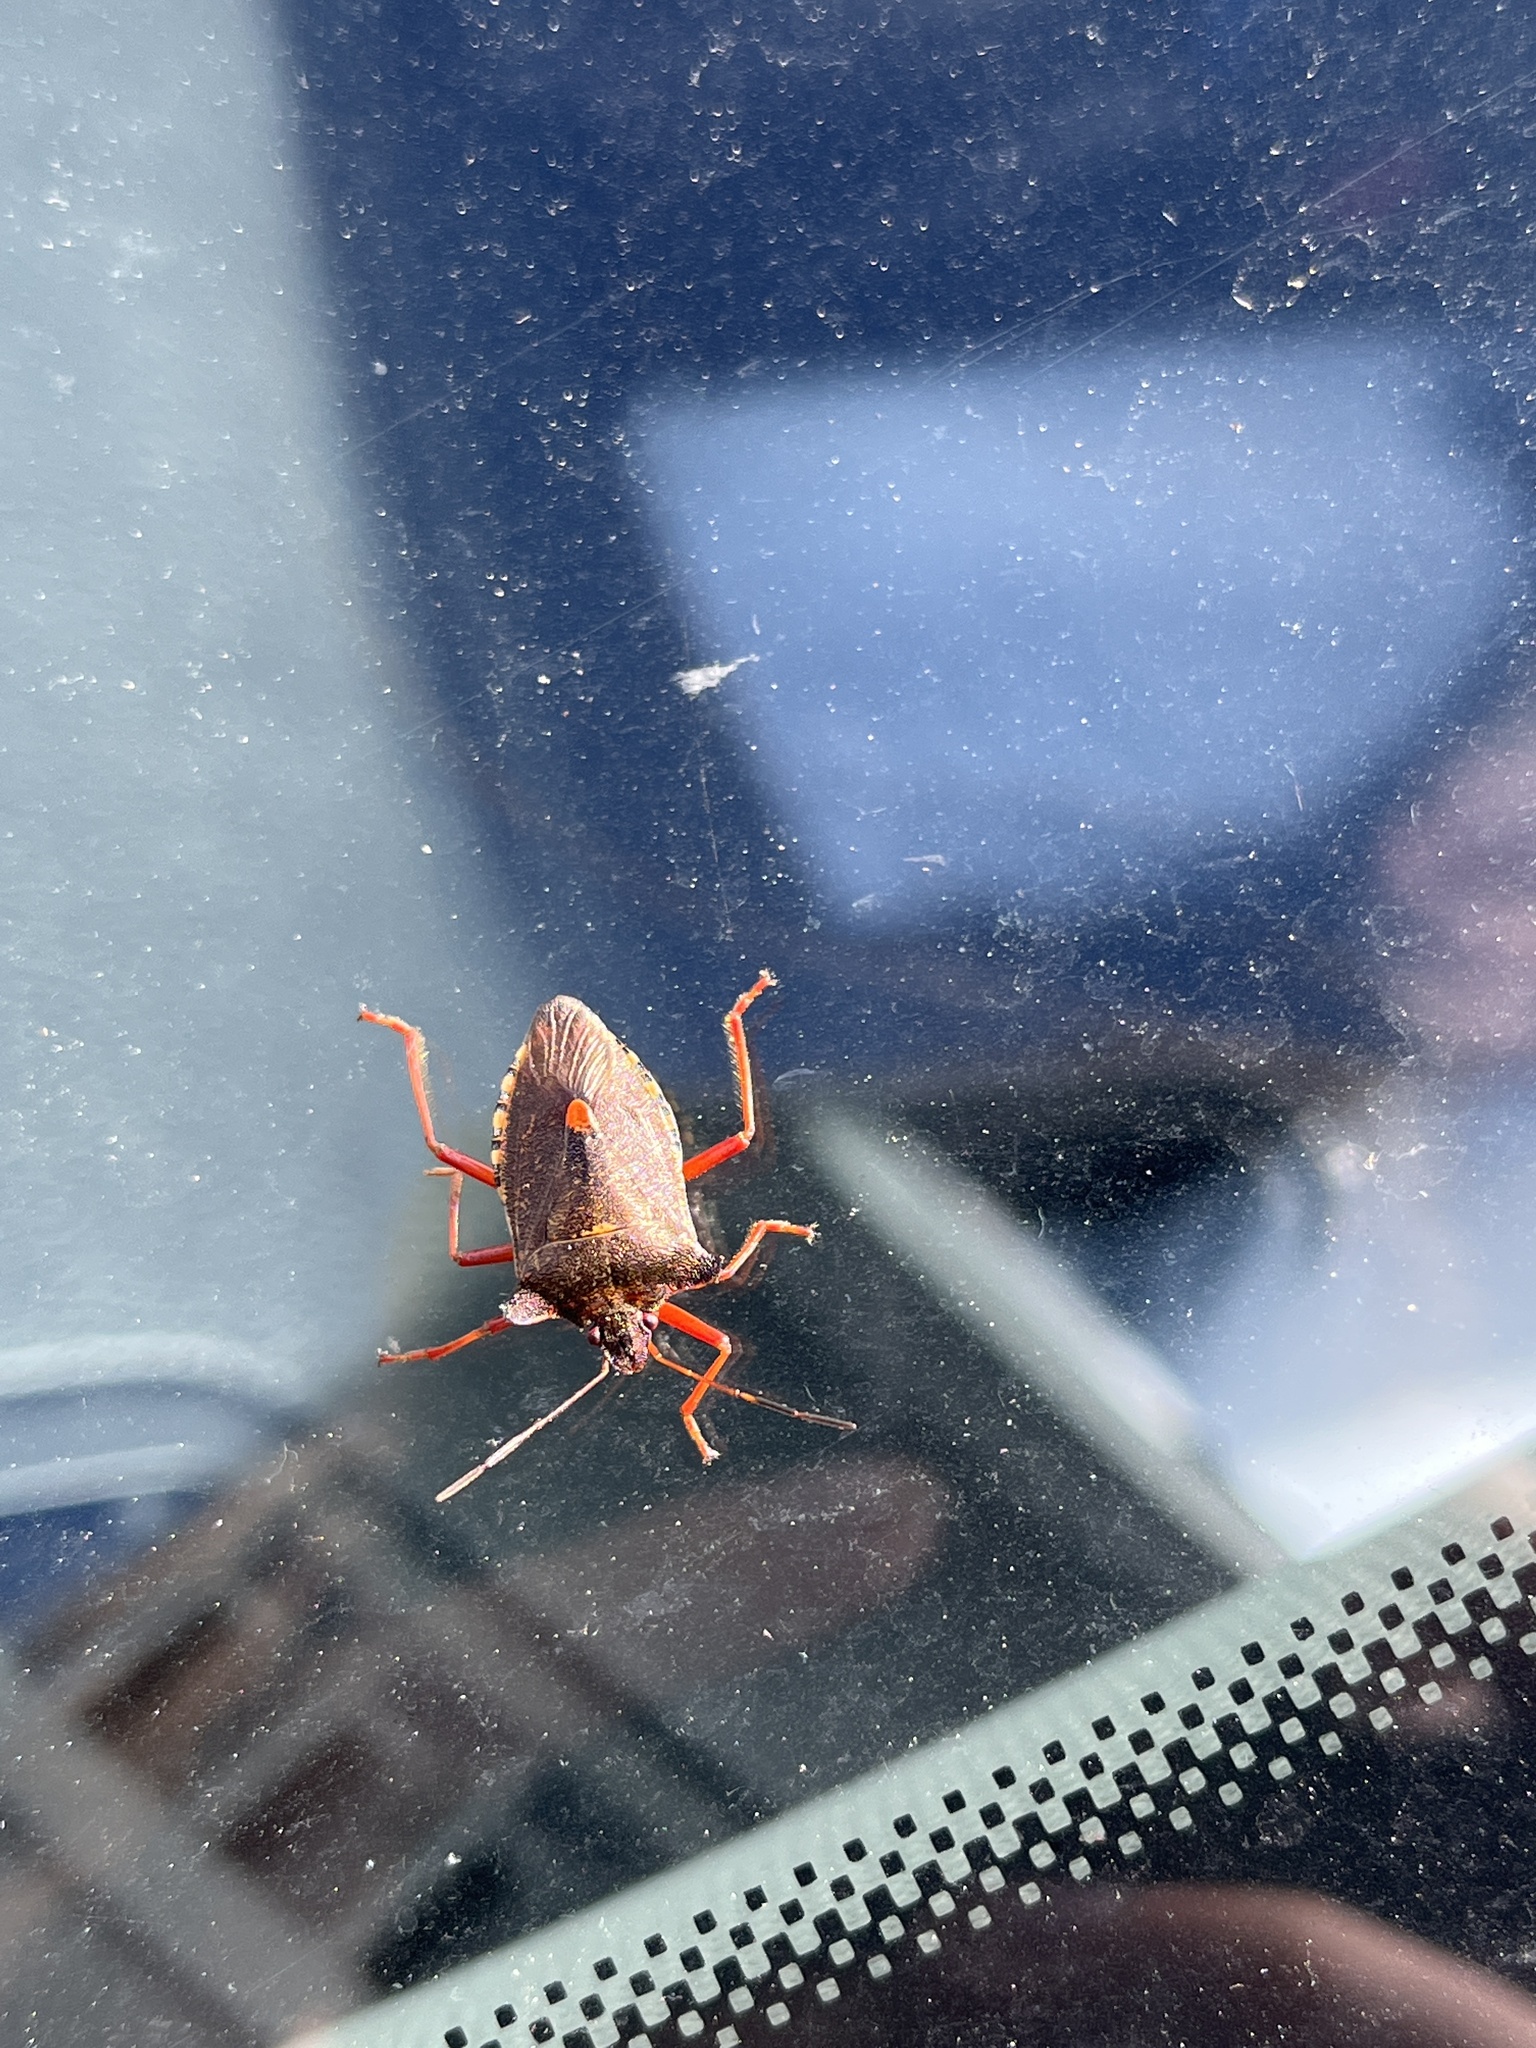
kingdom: Animalia
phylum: Arthropoda
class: Insecta
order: Hemiptera
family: Pentatomidae
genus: Pentatoma
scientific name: Pentatoma rufipes
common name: Forest bug
